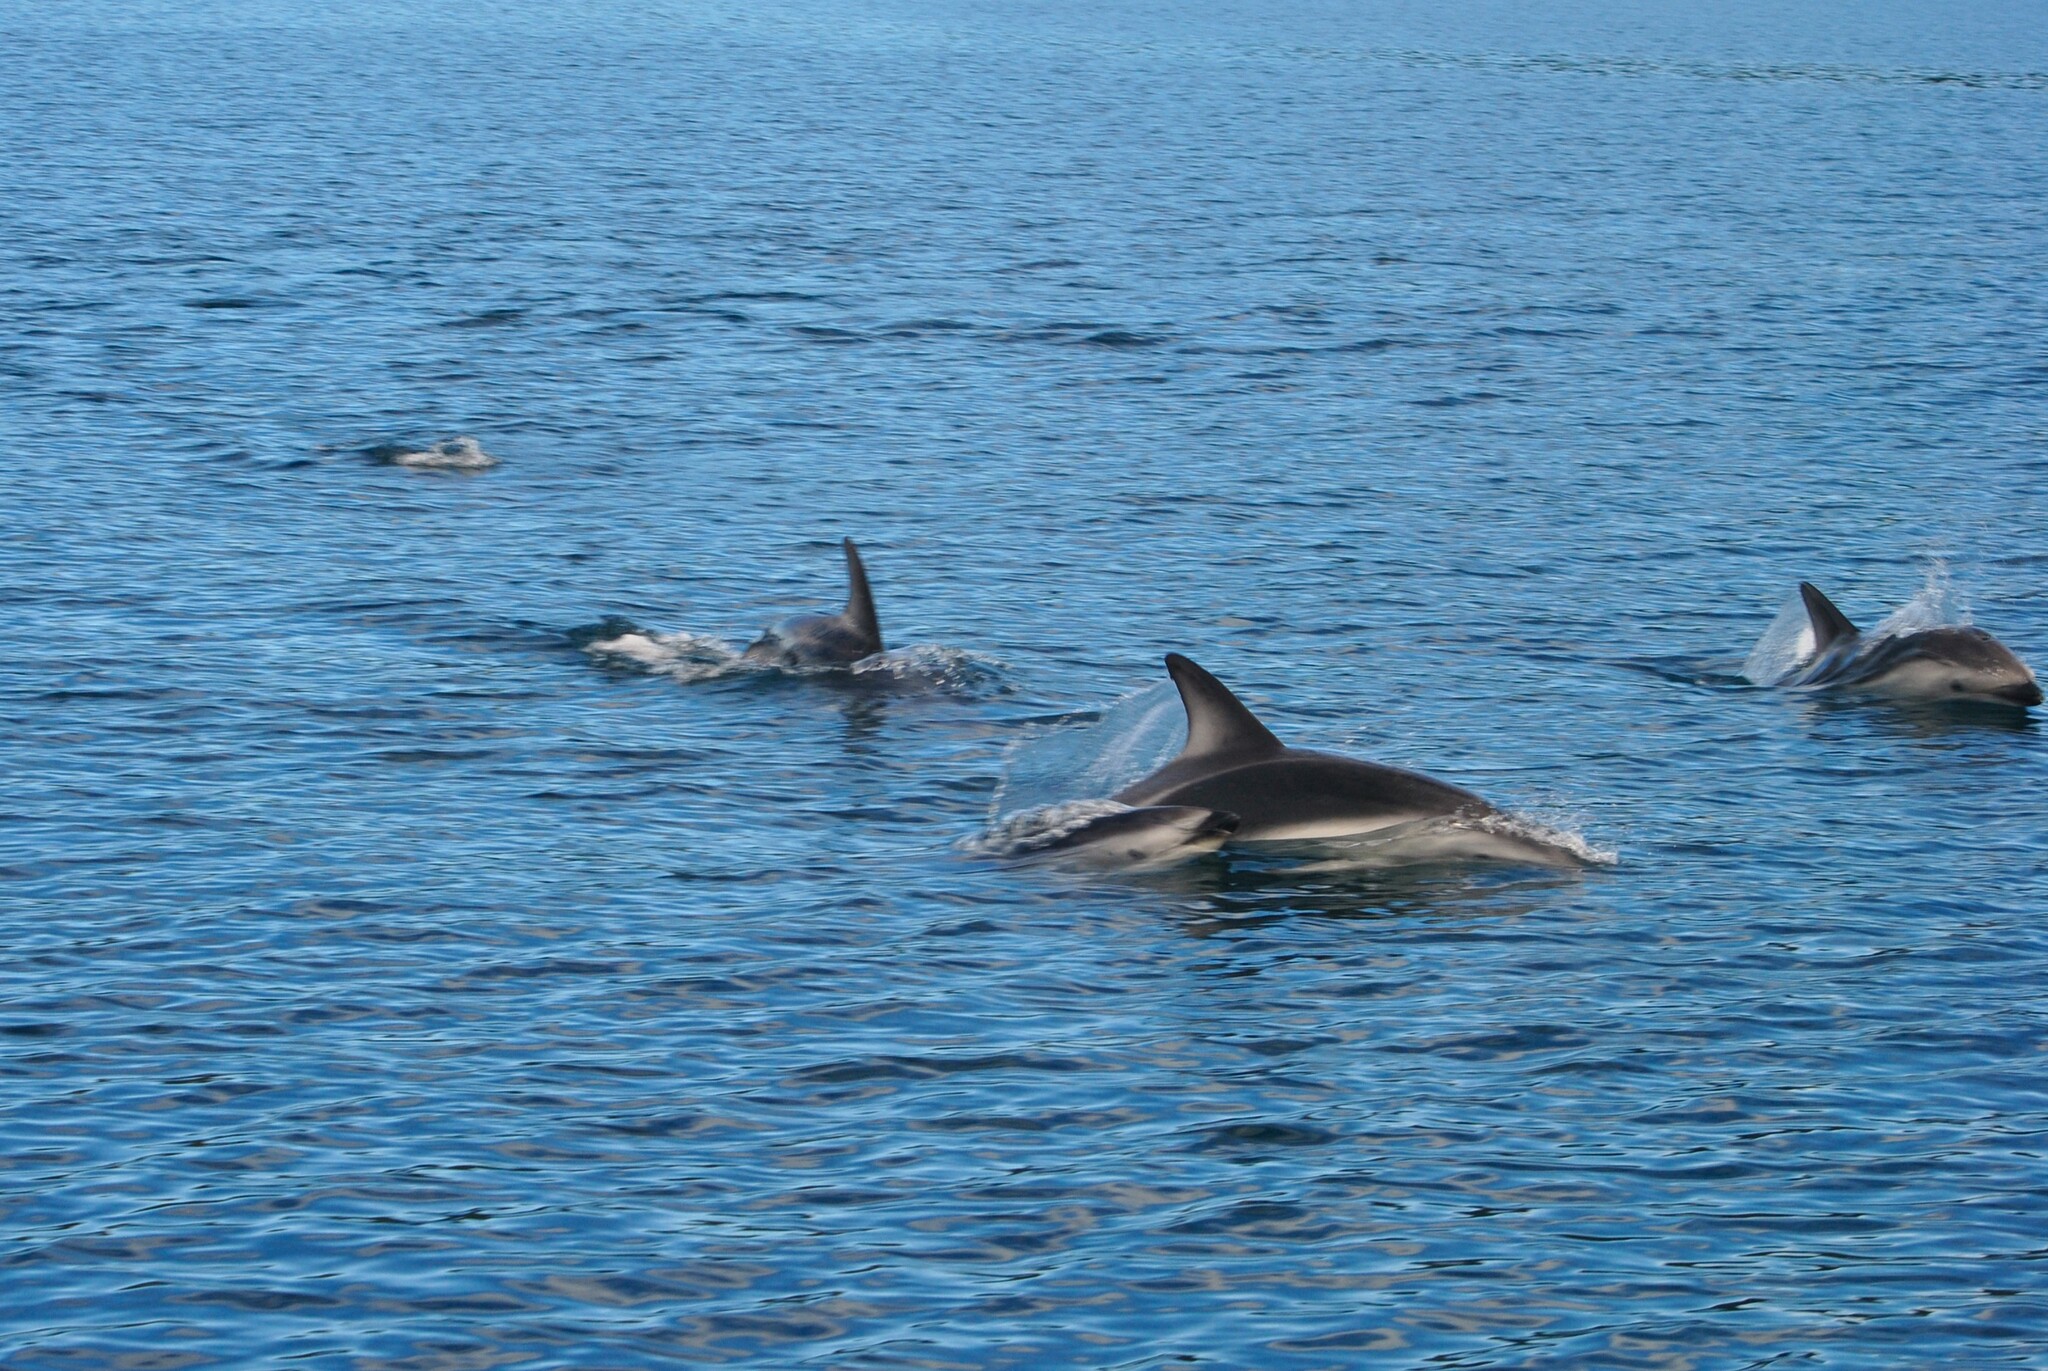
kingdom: Animalia
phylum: Chordata
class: Mammalia
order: Cetacea
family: Delphinidae
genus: Lagenorhynchus
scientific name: Lagenorhynchus obscurus
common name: Dusky dolphin
